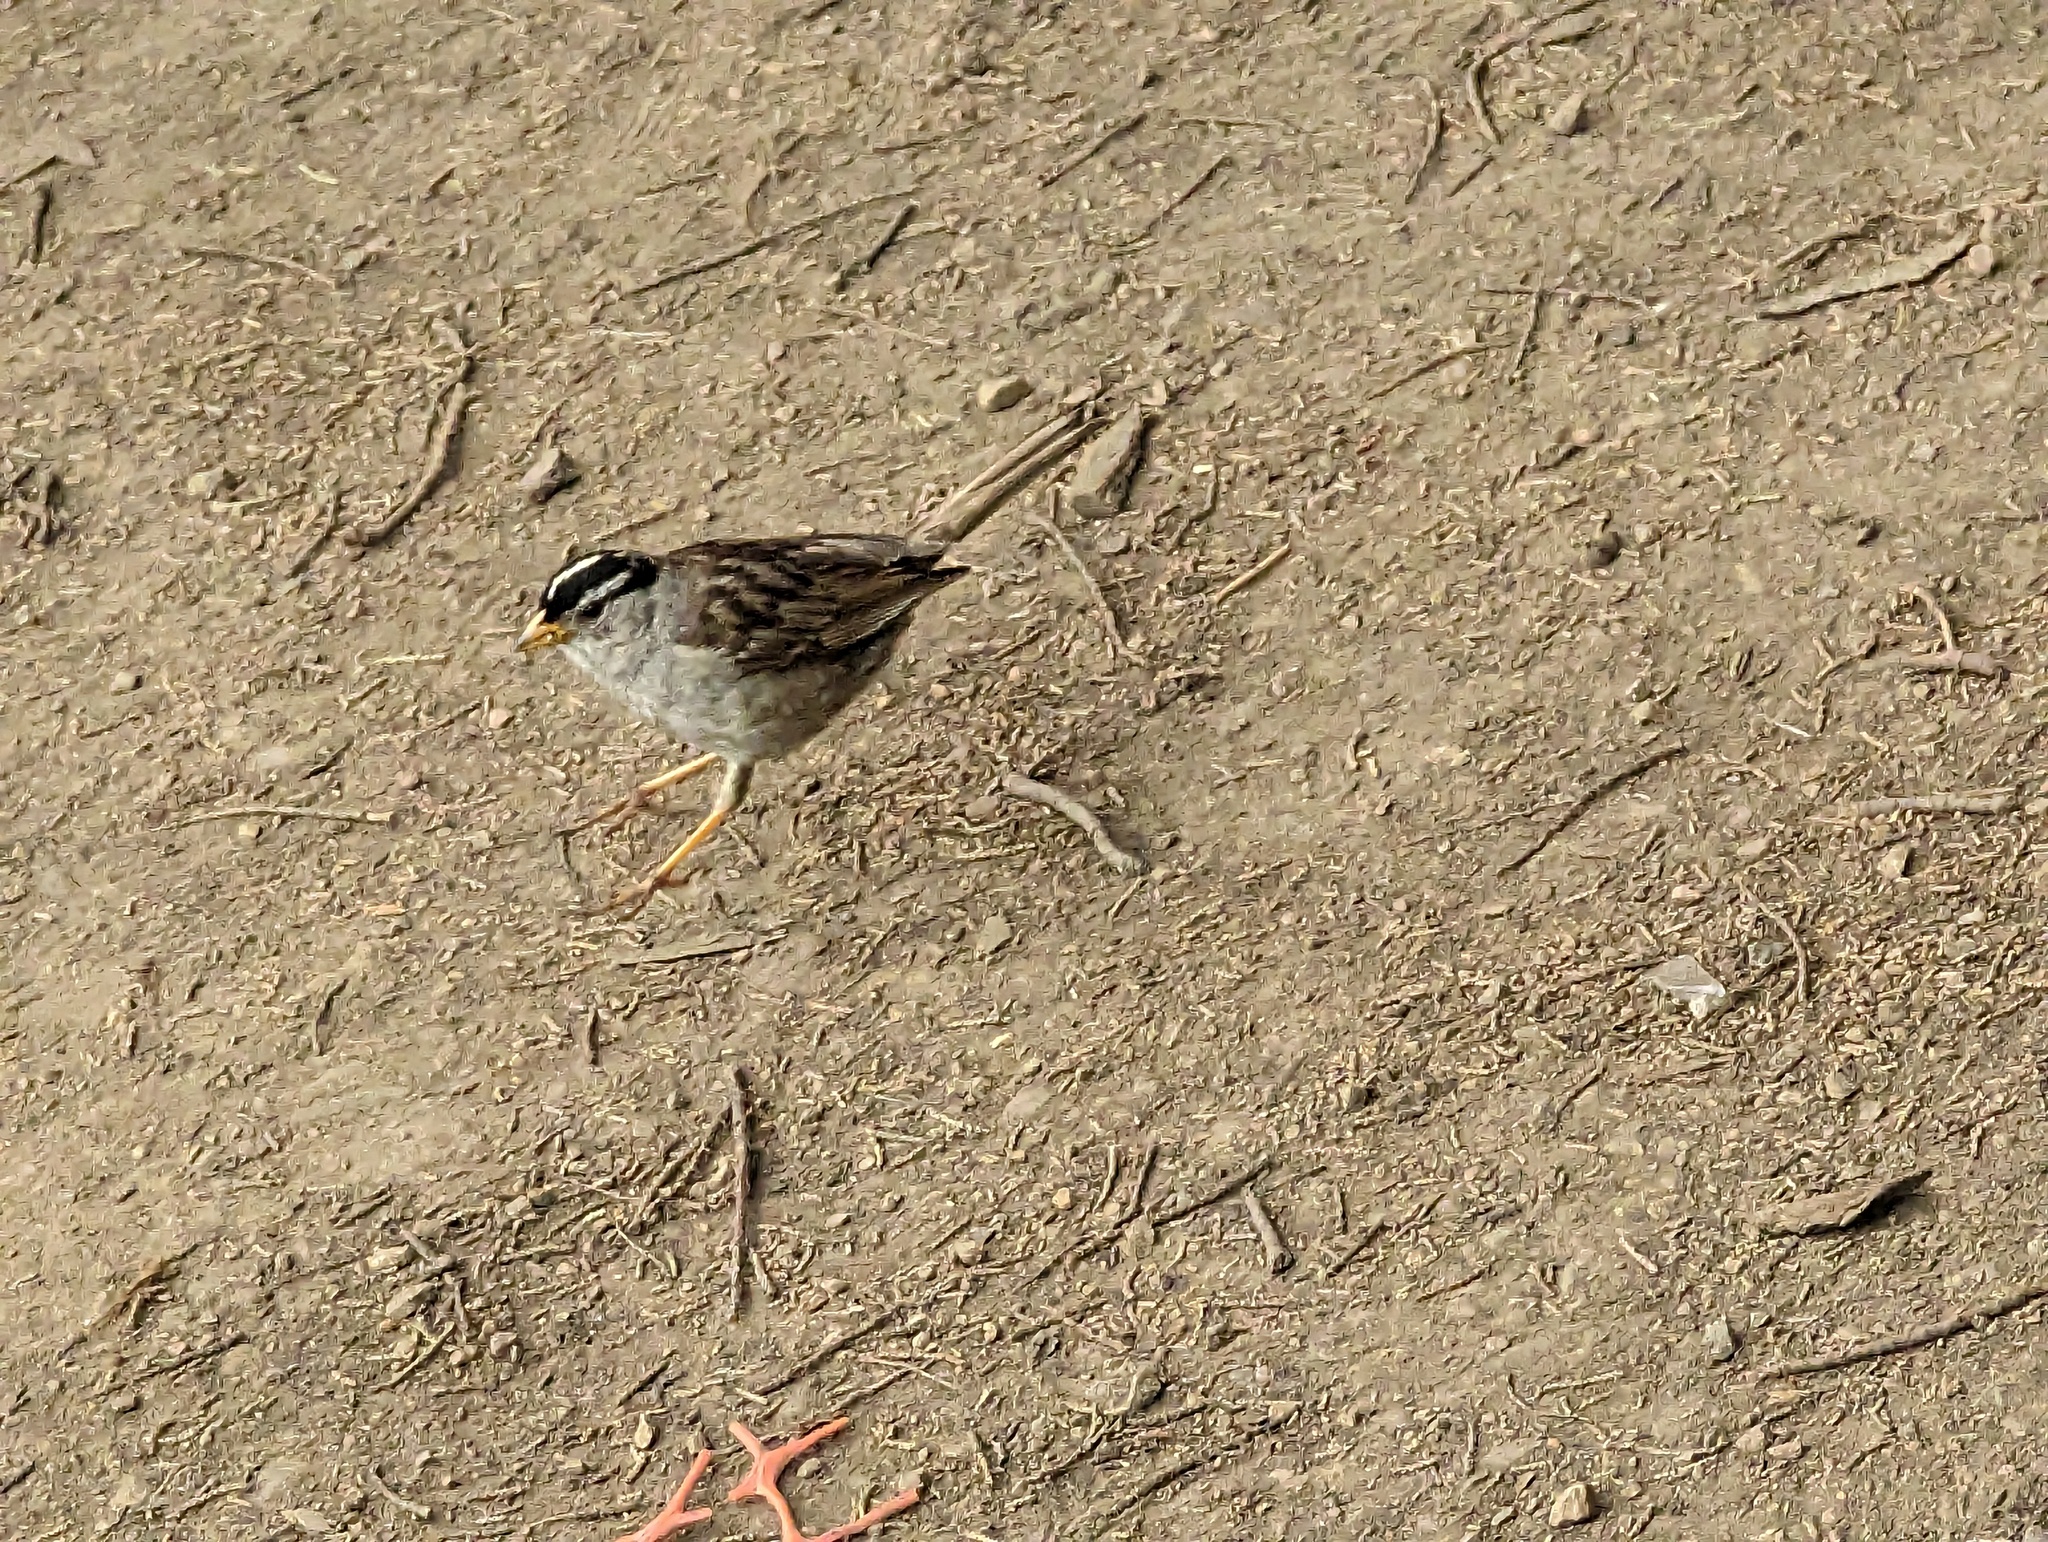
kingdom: Animalia
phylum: Chordata
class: Aves
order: Passeriformes
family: Passerellidae
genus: Zonotrichia
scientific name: Zonotrichia leucophrys
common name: White-crowned sparrow
